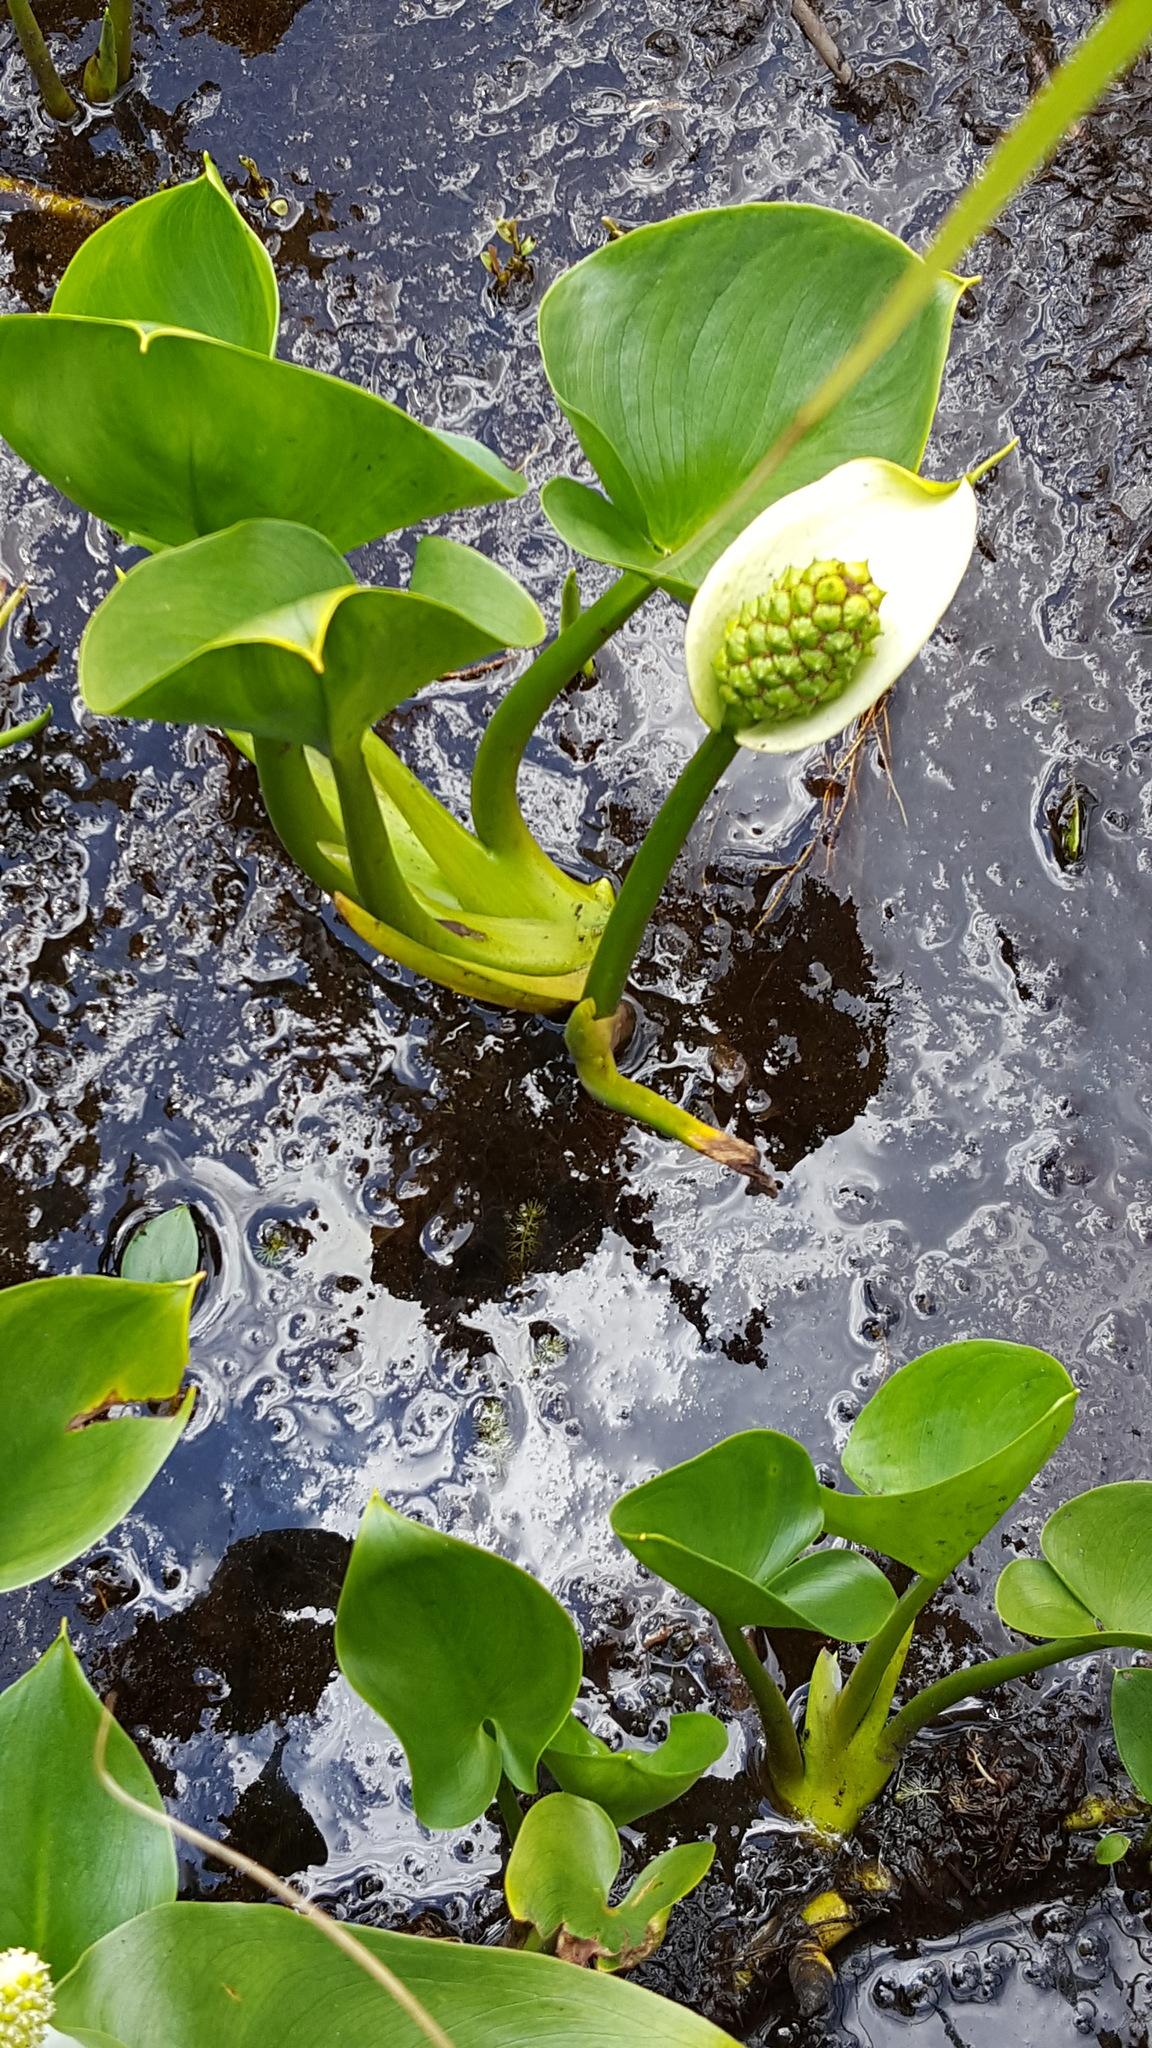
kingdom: Plantae
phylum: Tracheophyta
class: Liliopsida
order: Alismatales
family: Araceae
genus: Calla
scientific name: Calla palustris
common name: Bog arum
